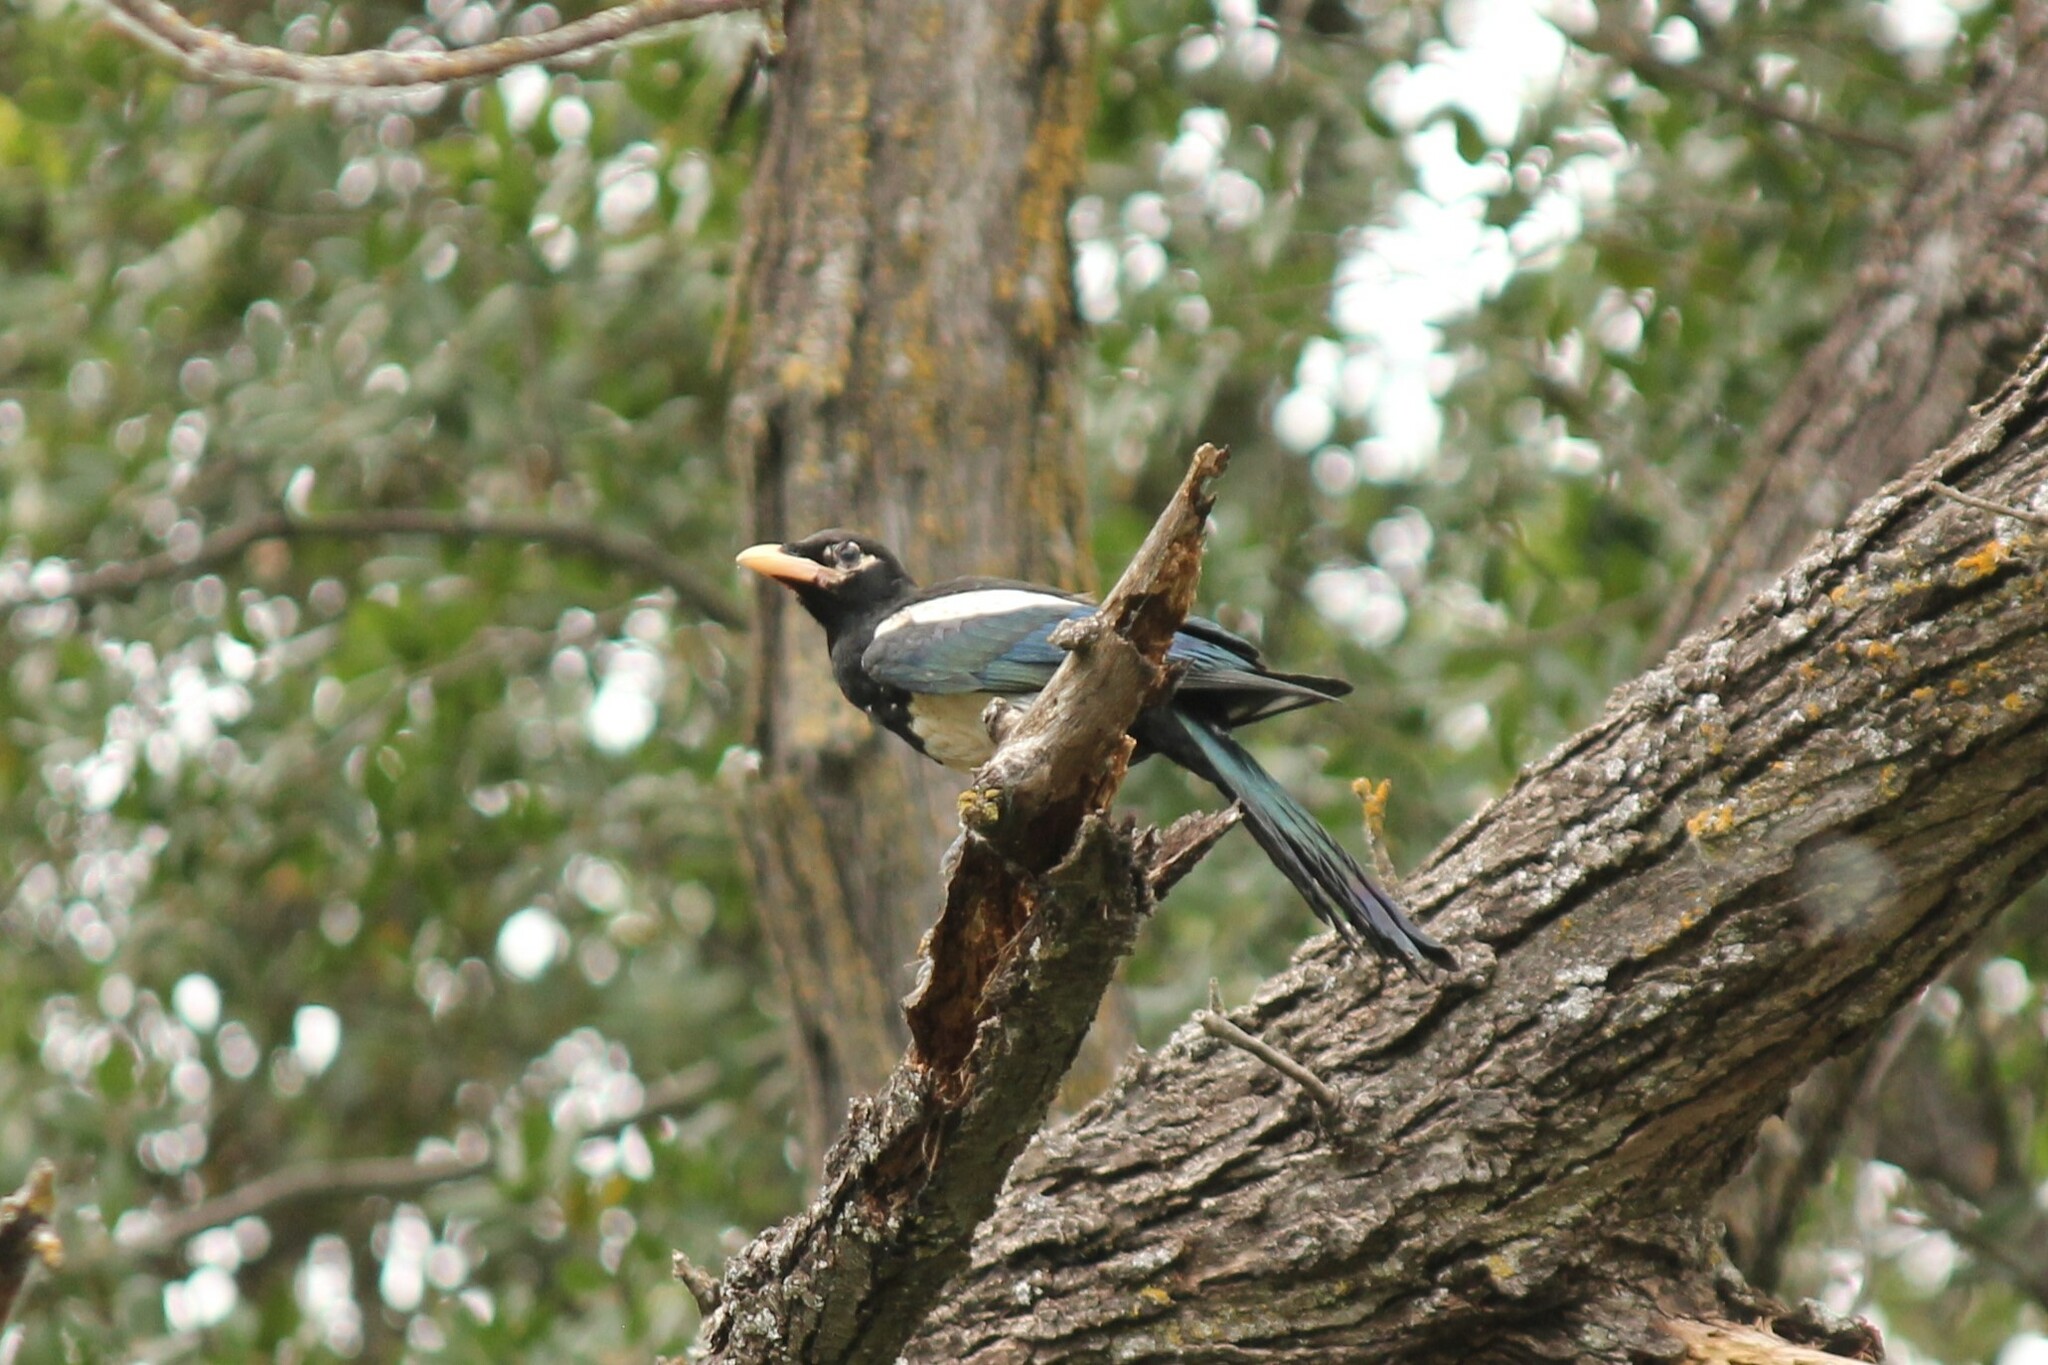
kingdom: Animalia
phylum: Chordata
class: Aves
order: Passeriformes
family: Corvidae
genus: Pica
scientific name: Pica nuttalli
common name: Yellow-billed magpie
